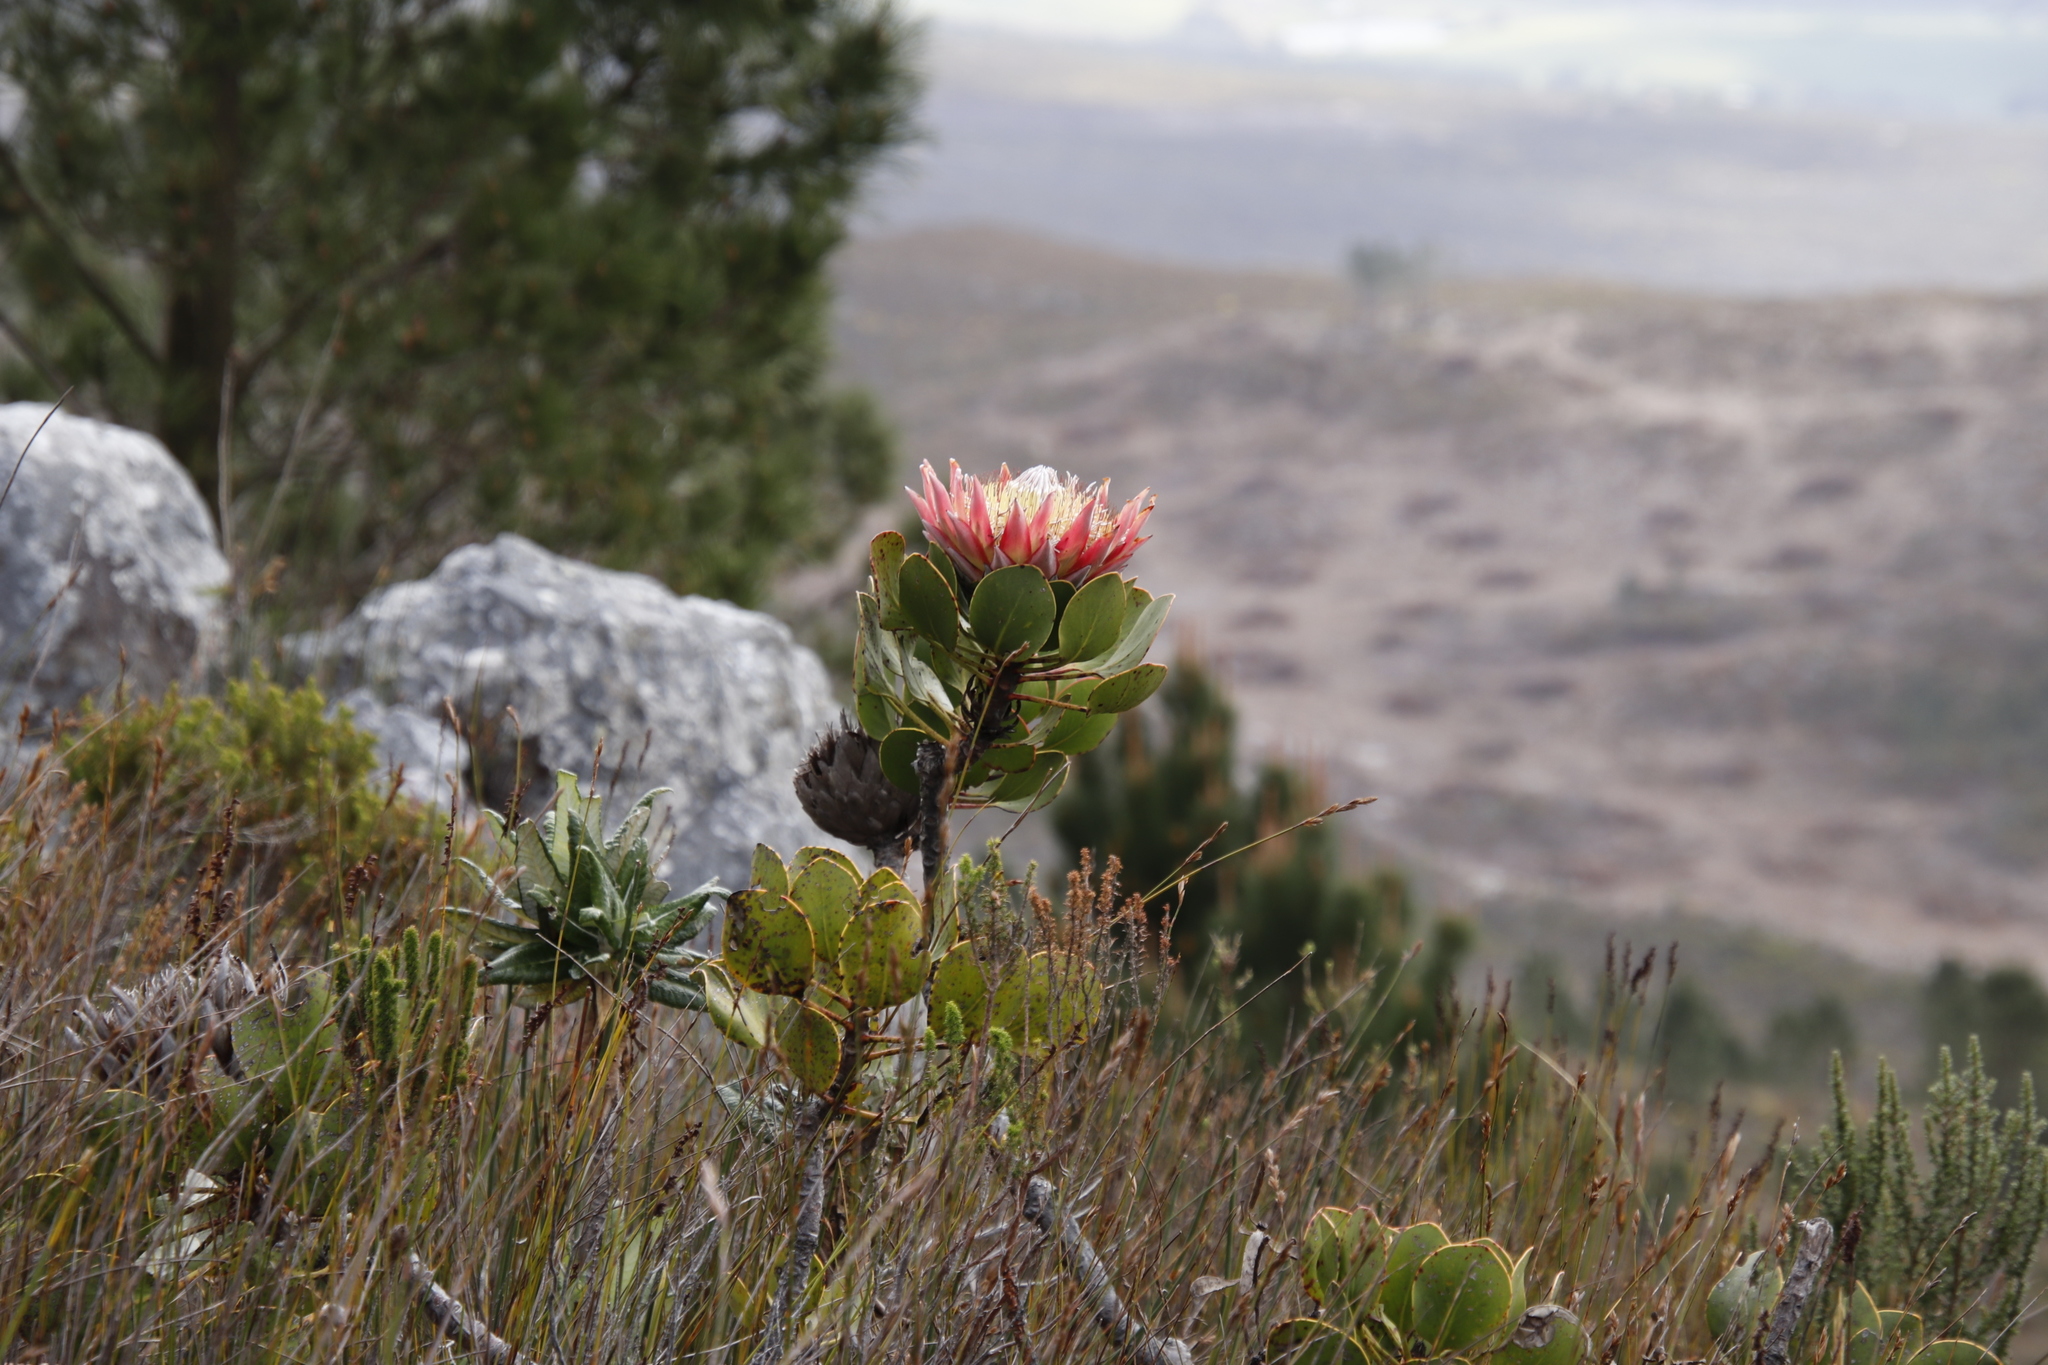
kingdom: Plantae
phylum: Tracheophyta
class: Magnoliopsida
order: Proteales
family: Proteaceae
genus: Protea
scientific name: Protea cynaroides
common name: King protea
